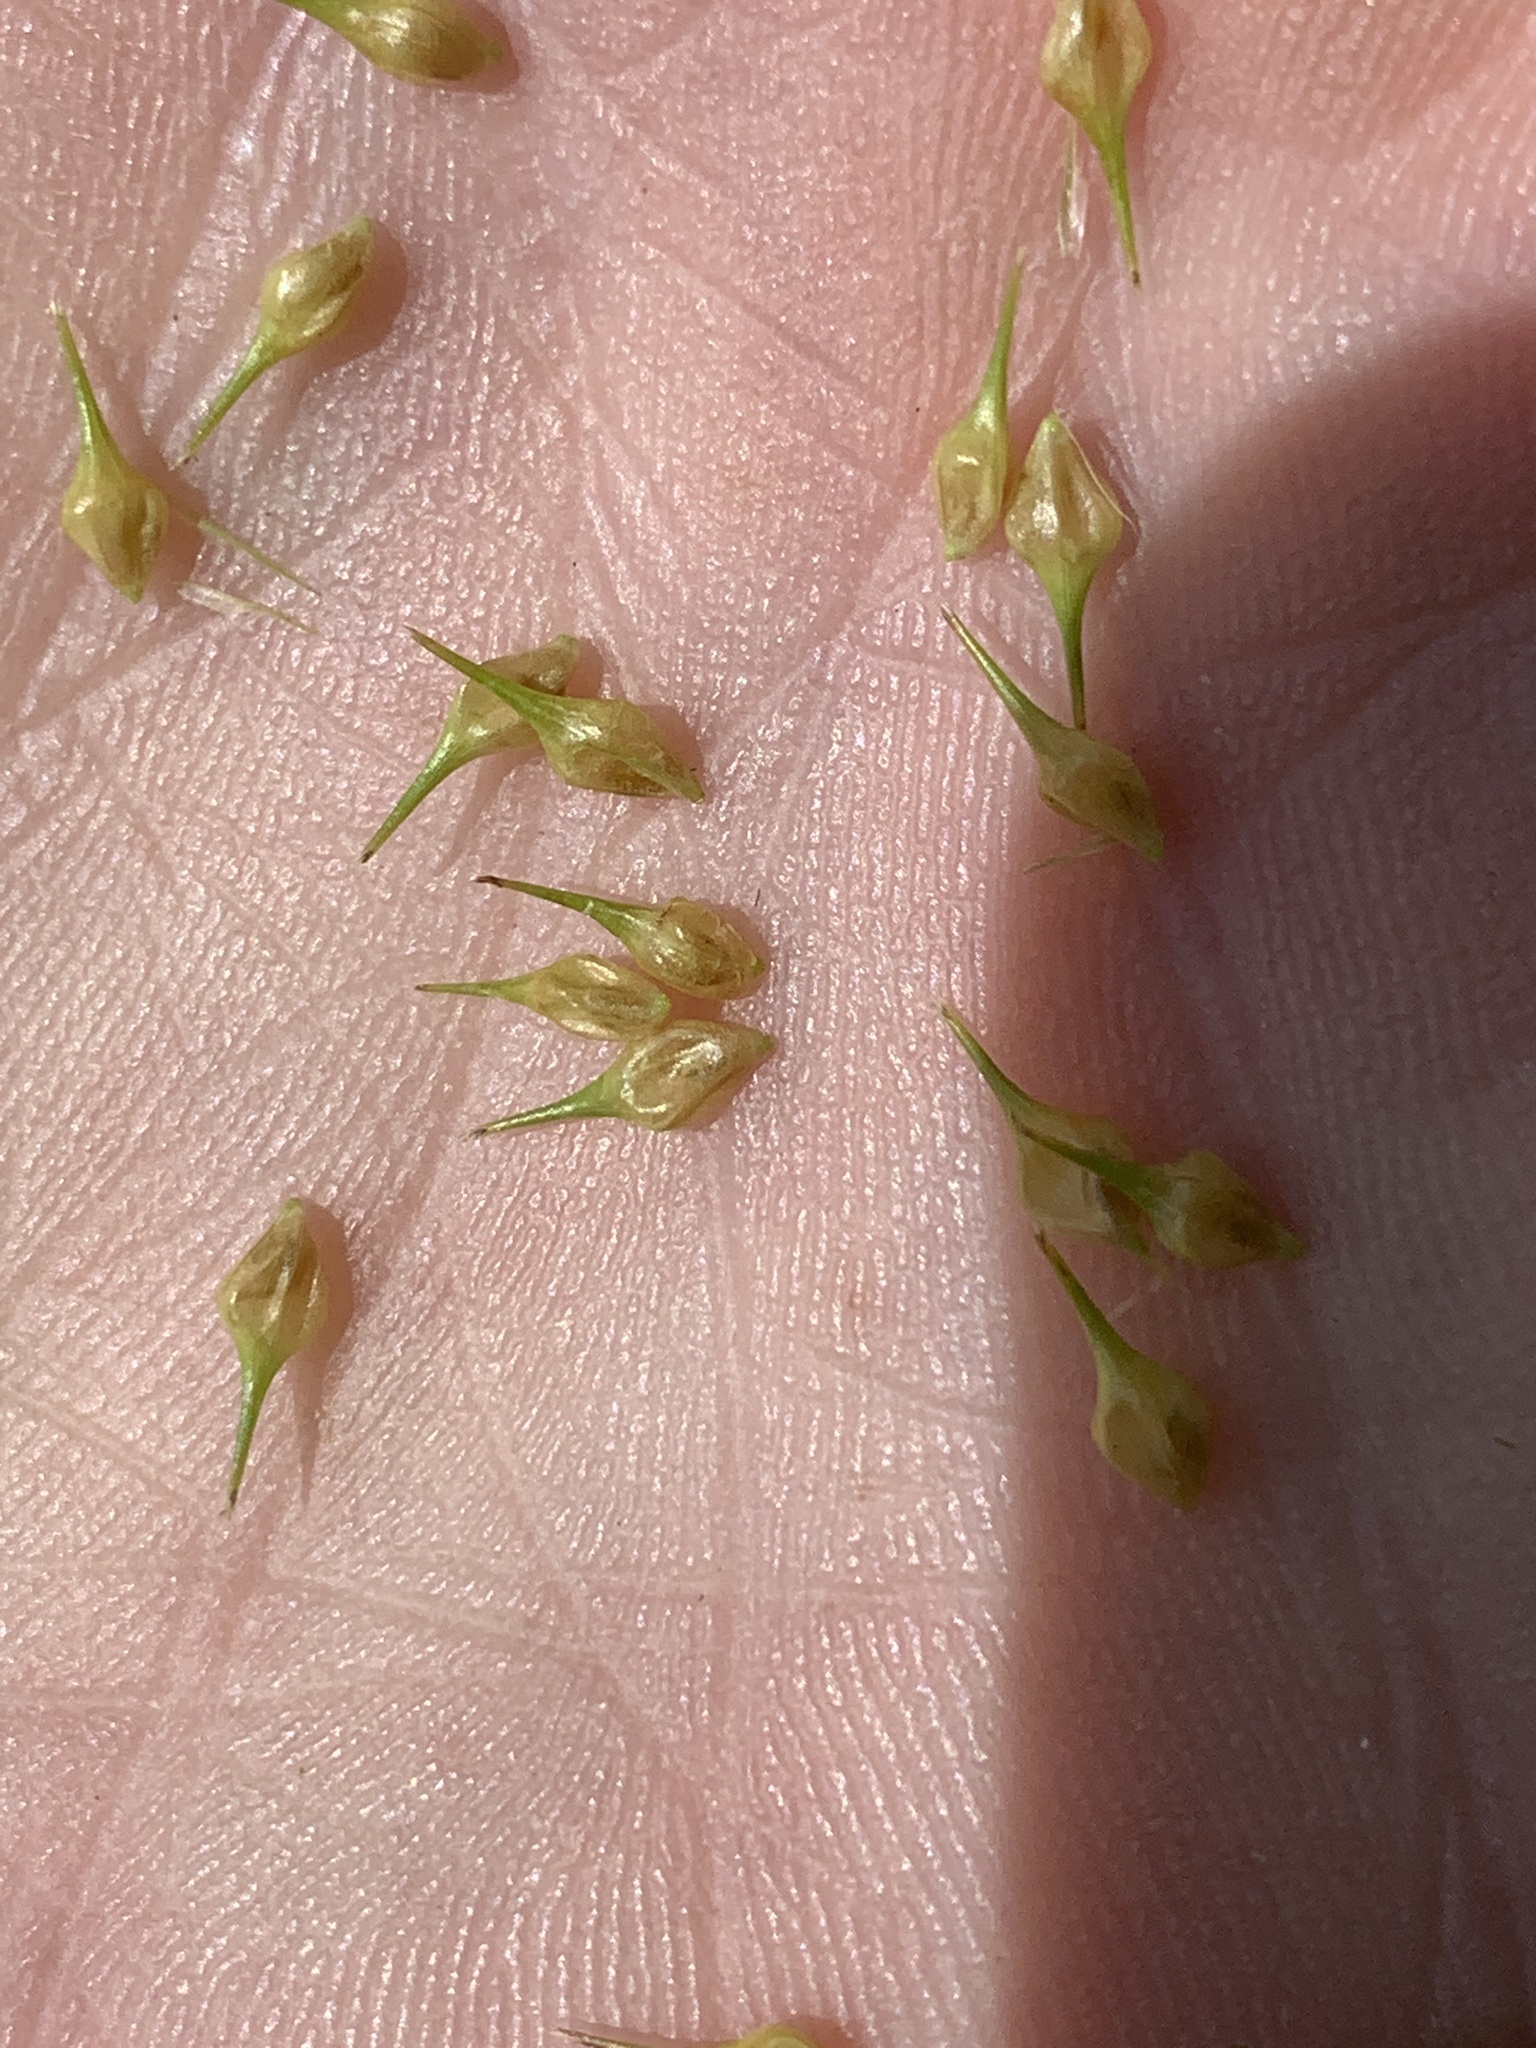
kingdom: Plantae
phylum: Tracheophyta
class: Liliopsida
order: Poales
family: Cyperaceae
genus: Carex
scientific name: Carex lurida
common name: Sallow sedge
